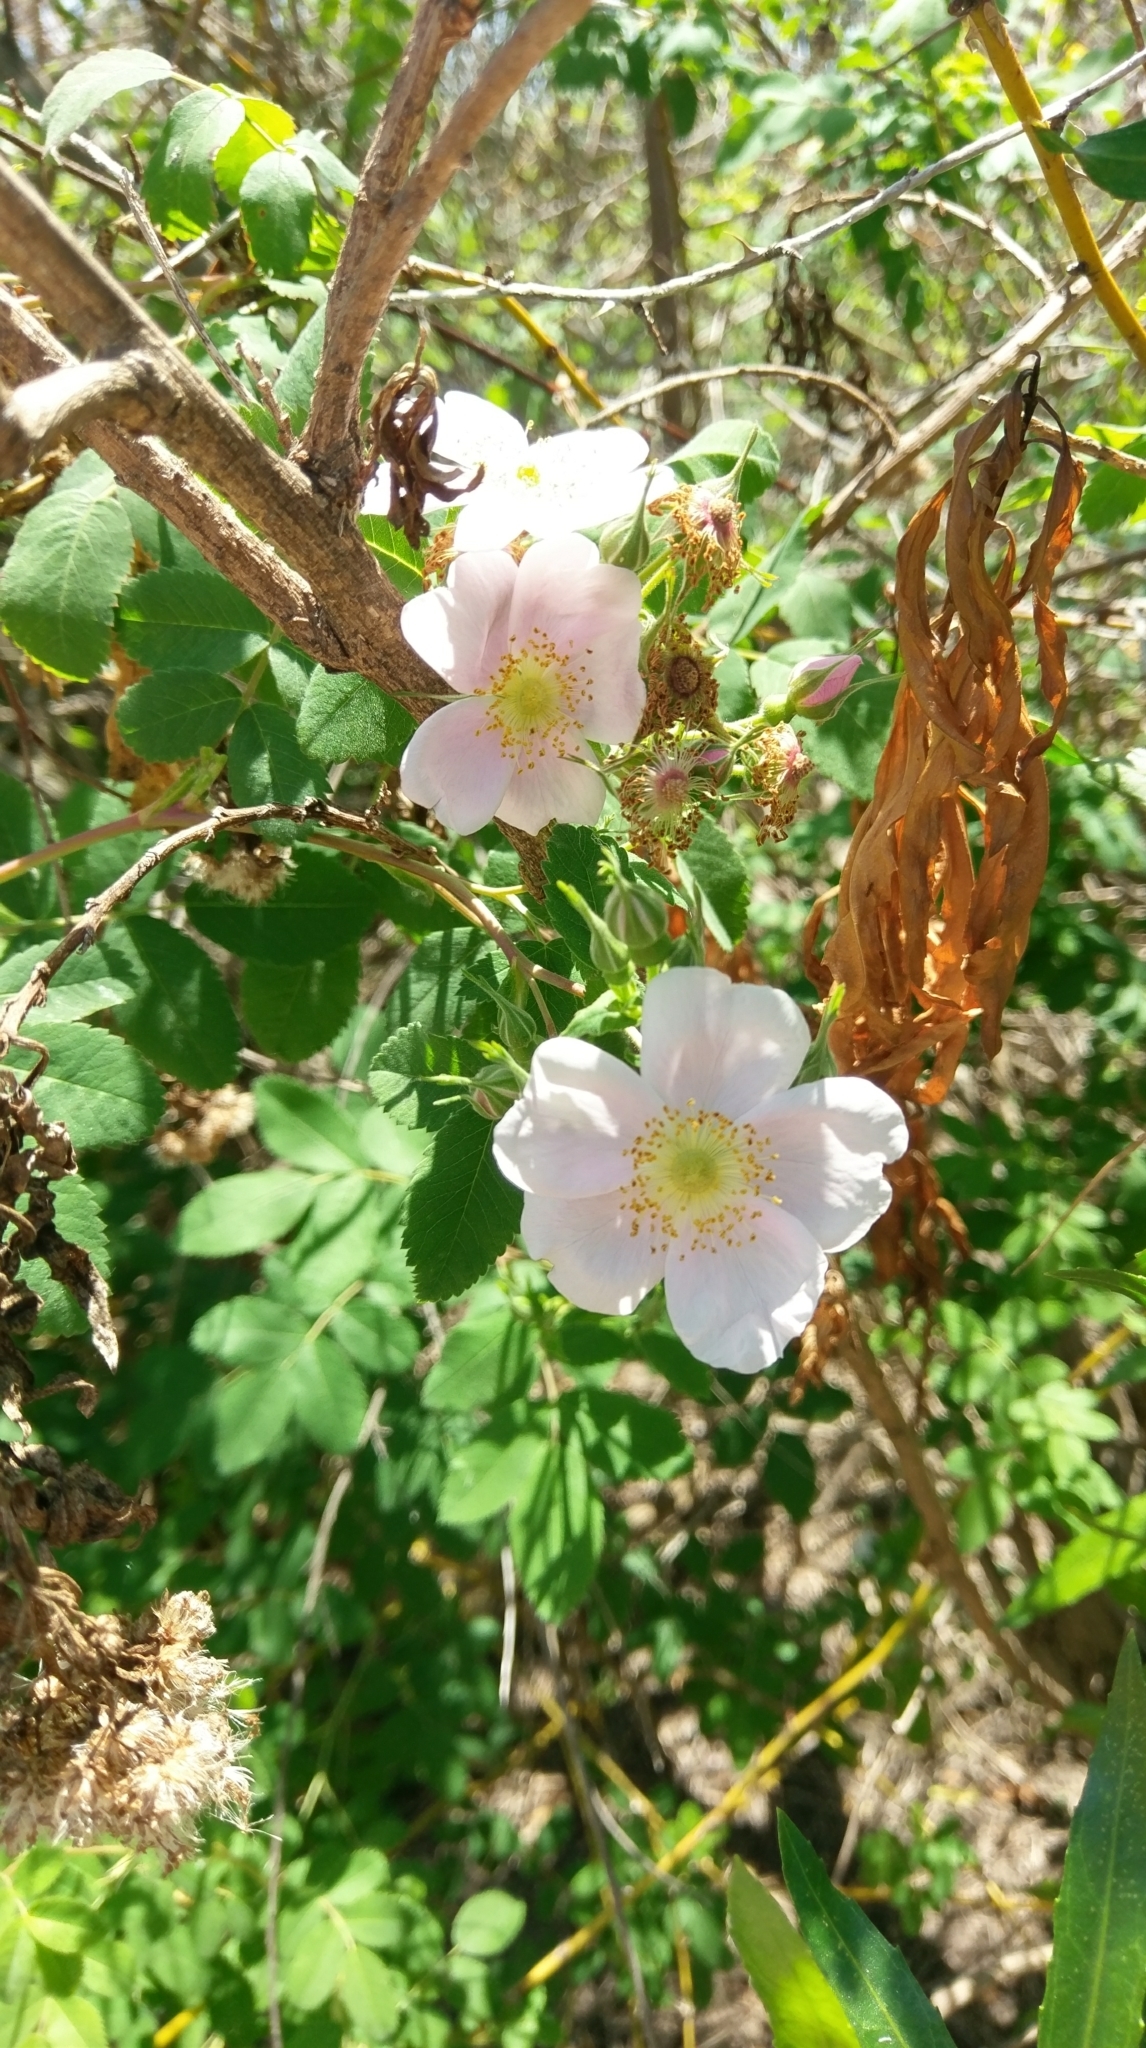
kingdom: Plantae
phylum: Tracheophyta
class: Magnoliopsida
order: Rosales
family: Rosaceae
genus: Rosa
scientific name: Rosa californica
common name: California rose
